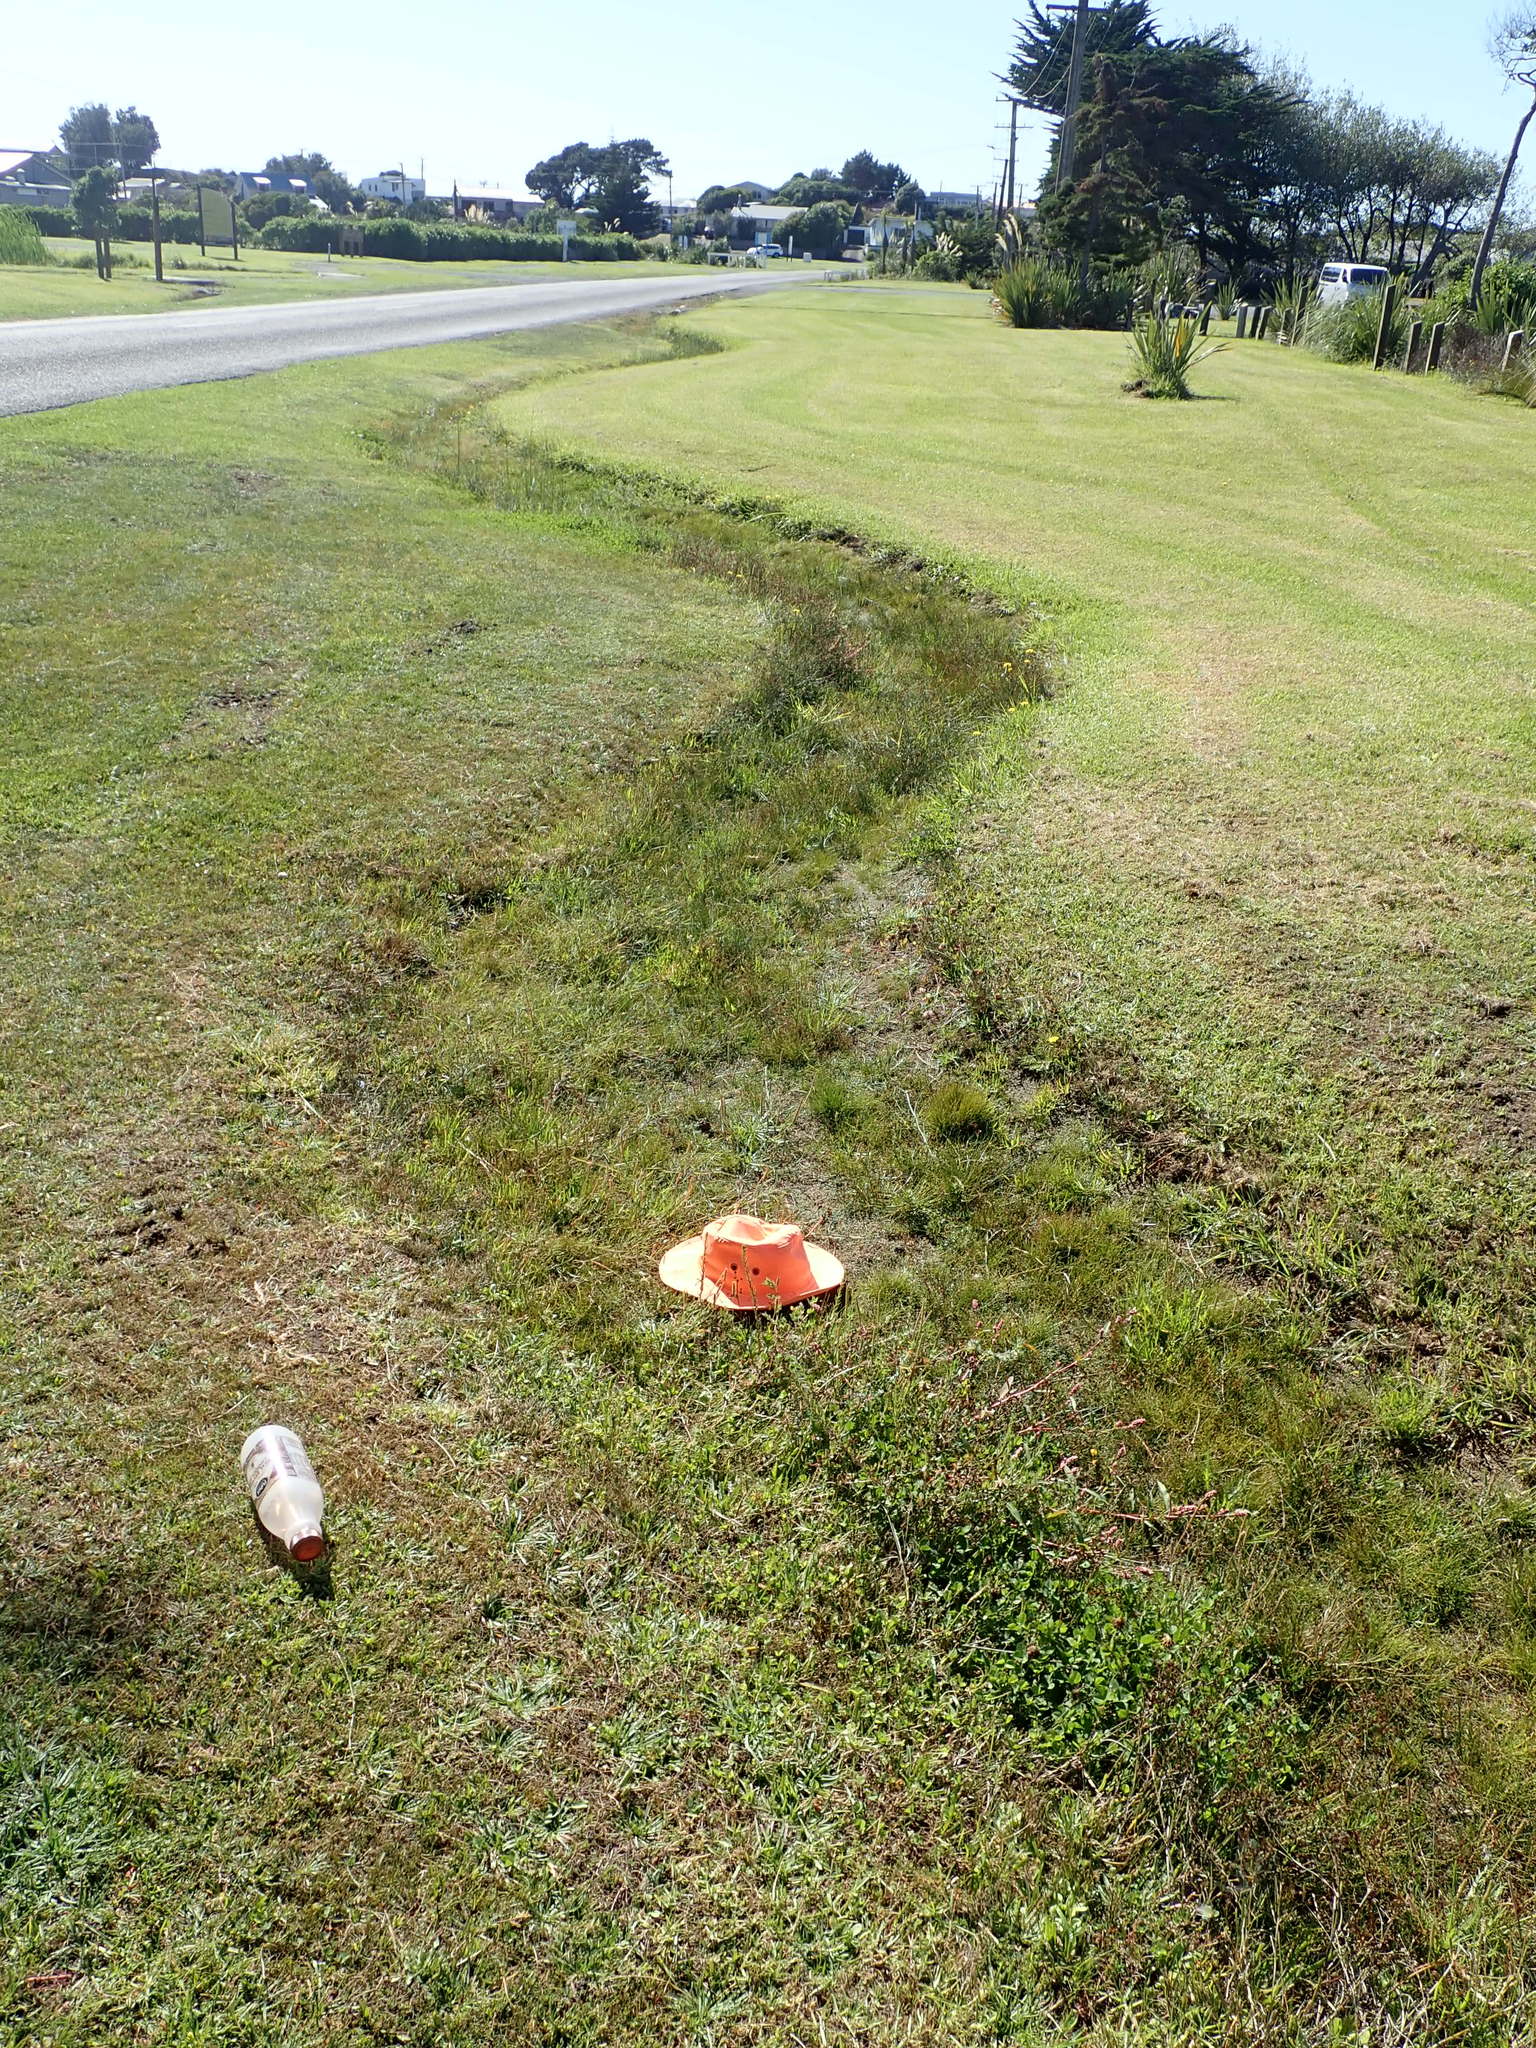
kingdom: Plantae
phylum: Tracheophyta
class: Magnoliopsida
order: Lamiales
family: Plantaginaceae
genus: Plantago
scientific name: Plantago coronopus
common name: Buck's-horn plantain
